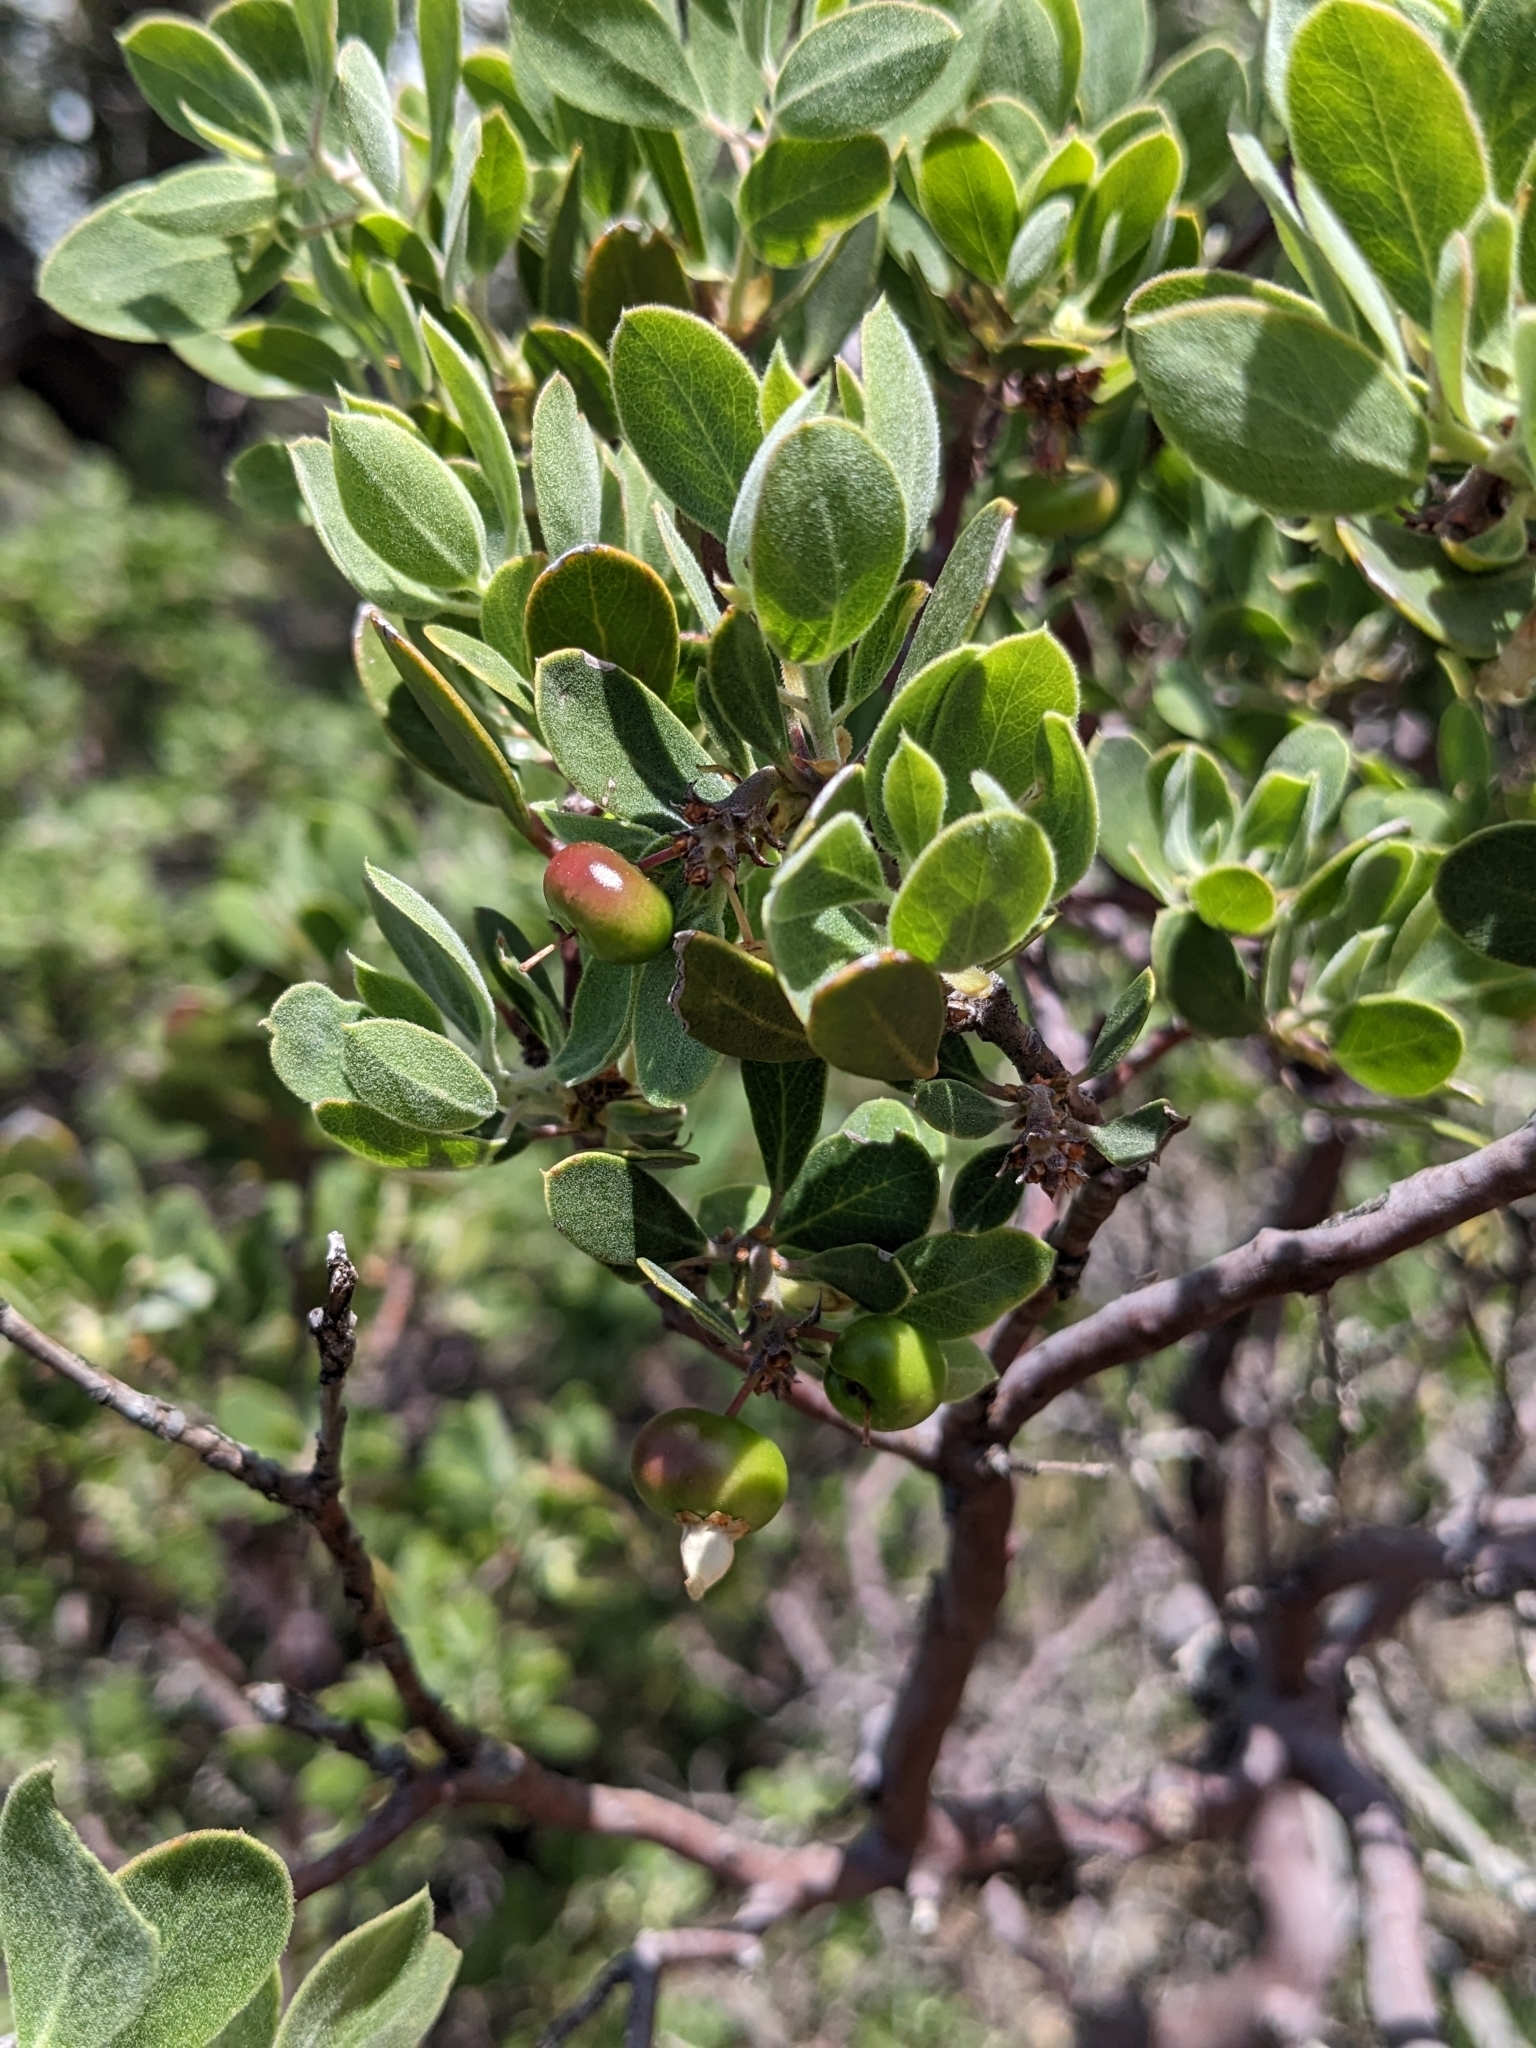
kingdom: Plantae
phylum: Tracheophyta
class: Magnoliopsida
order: Ericales
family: Ericaceae
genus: Arctostaphylos
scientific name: Arctostaphylos pungens
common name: Mexican manzanita
